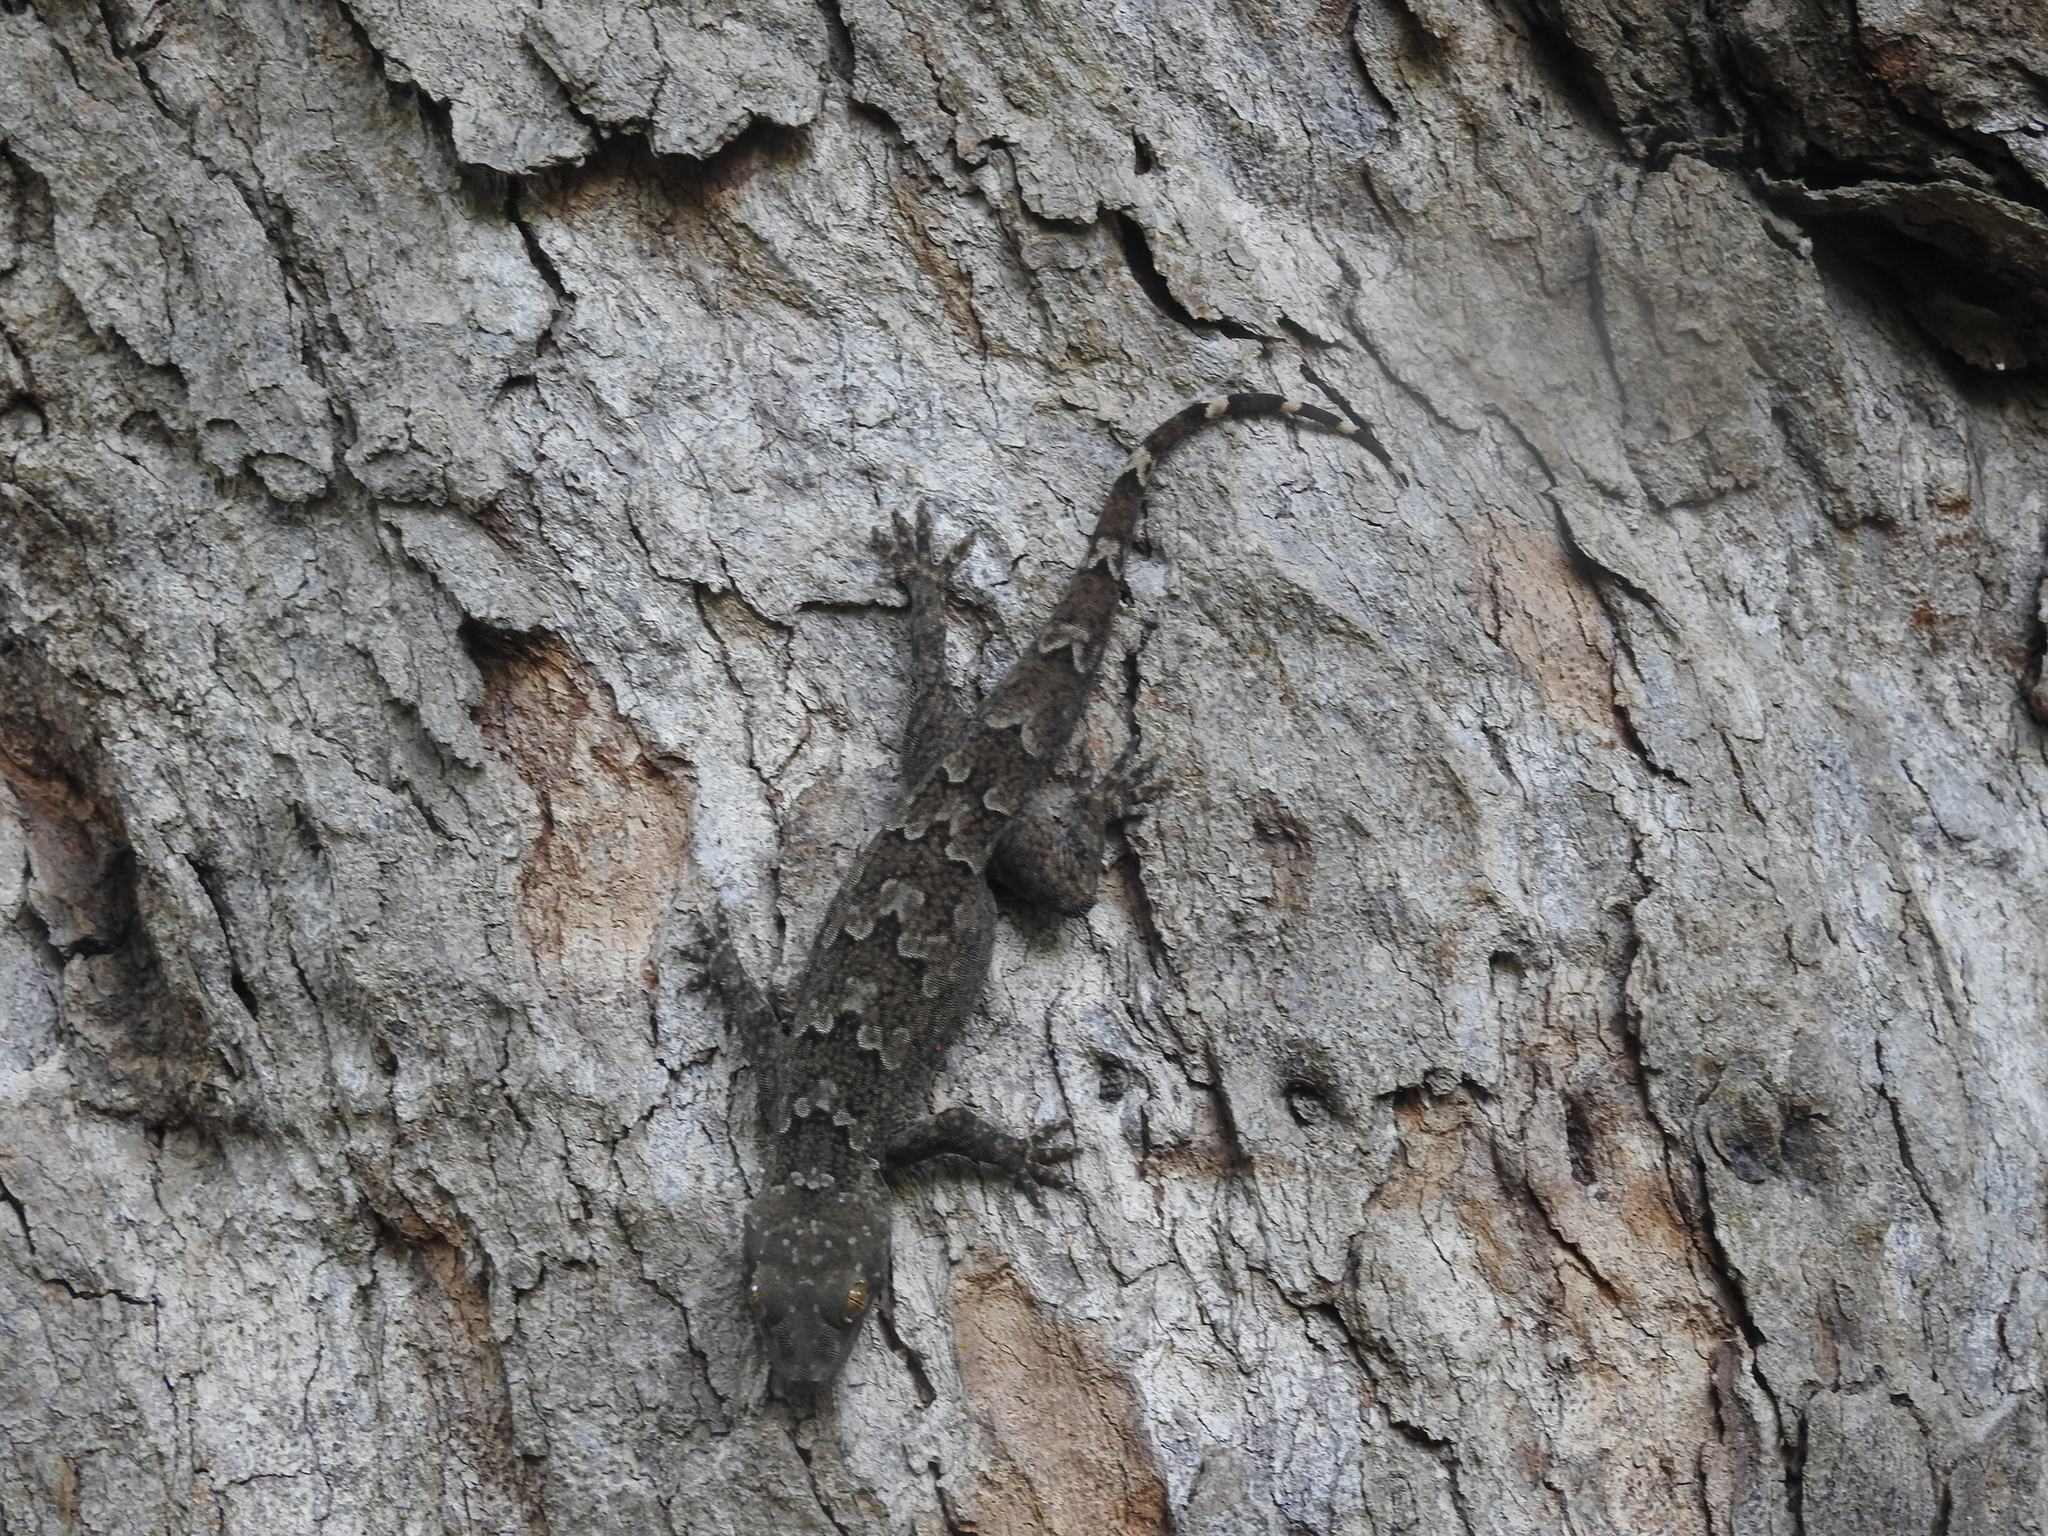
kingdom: Animalia
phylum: Chordata
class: Squamata
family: Gekkonidae
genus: Hemidactylus
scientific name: Hemidactylus flaviviridis
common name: Northern house gecko
